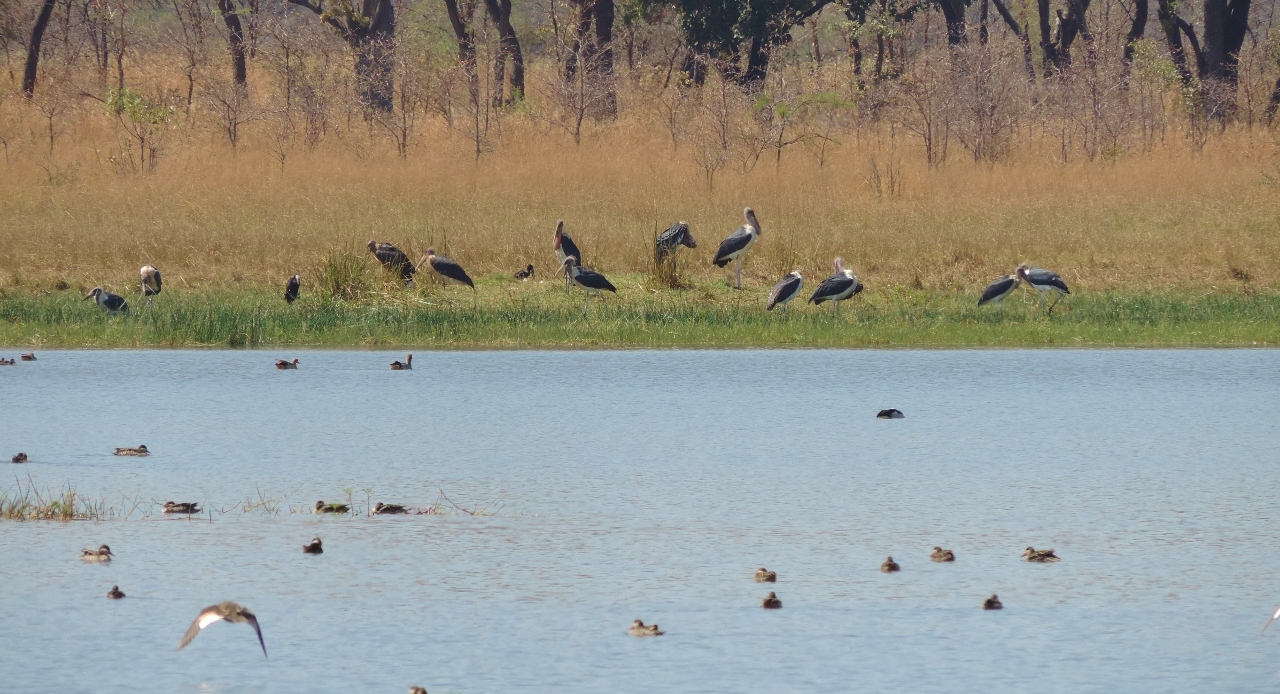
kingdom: Animalia
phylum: Chordata
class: Aves
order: Ciconiiformes
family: Ciconiidae
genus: Leptoptilos
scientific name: Leptoptilos crumenifer
